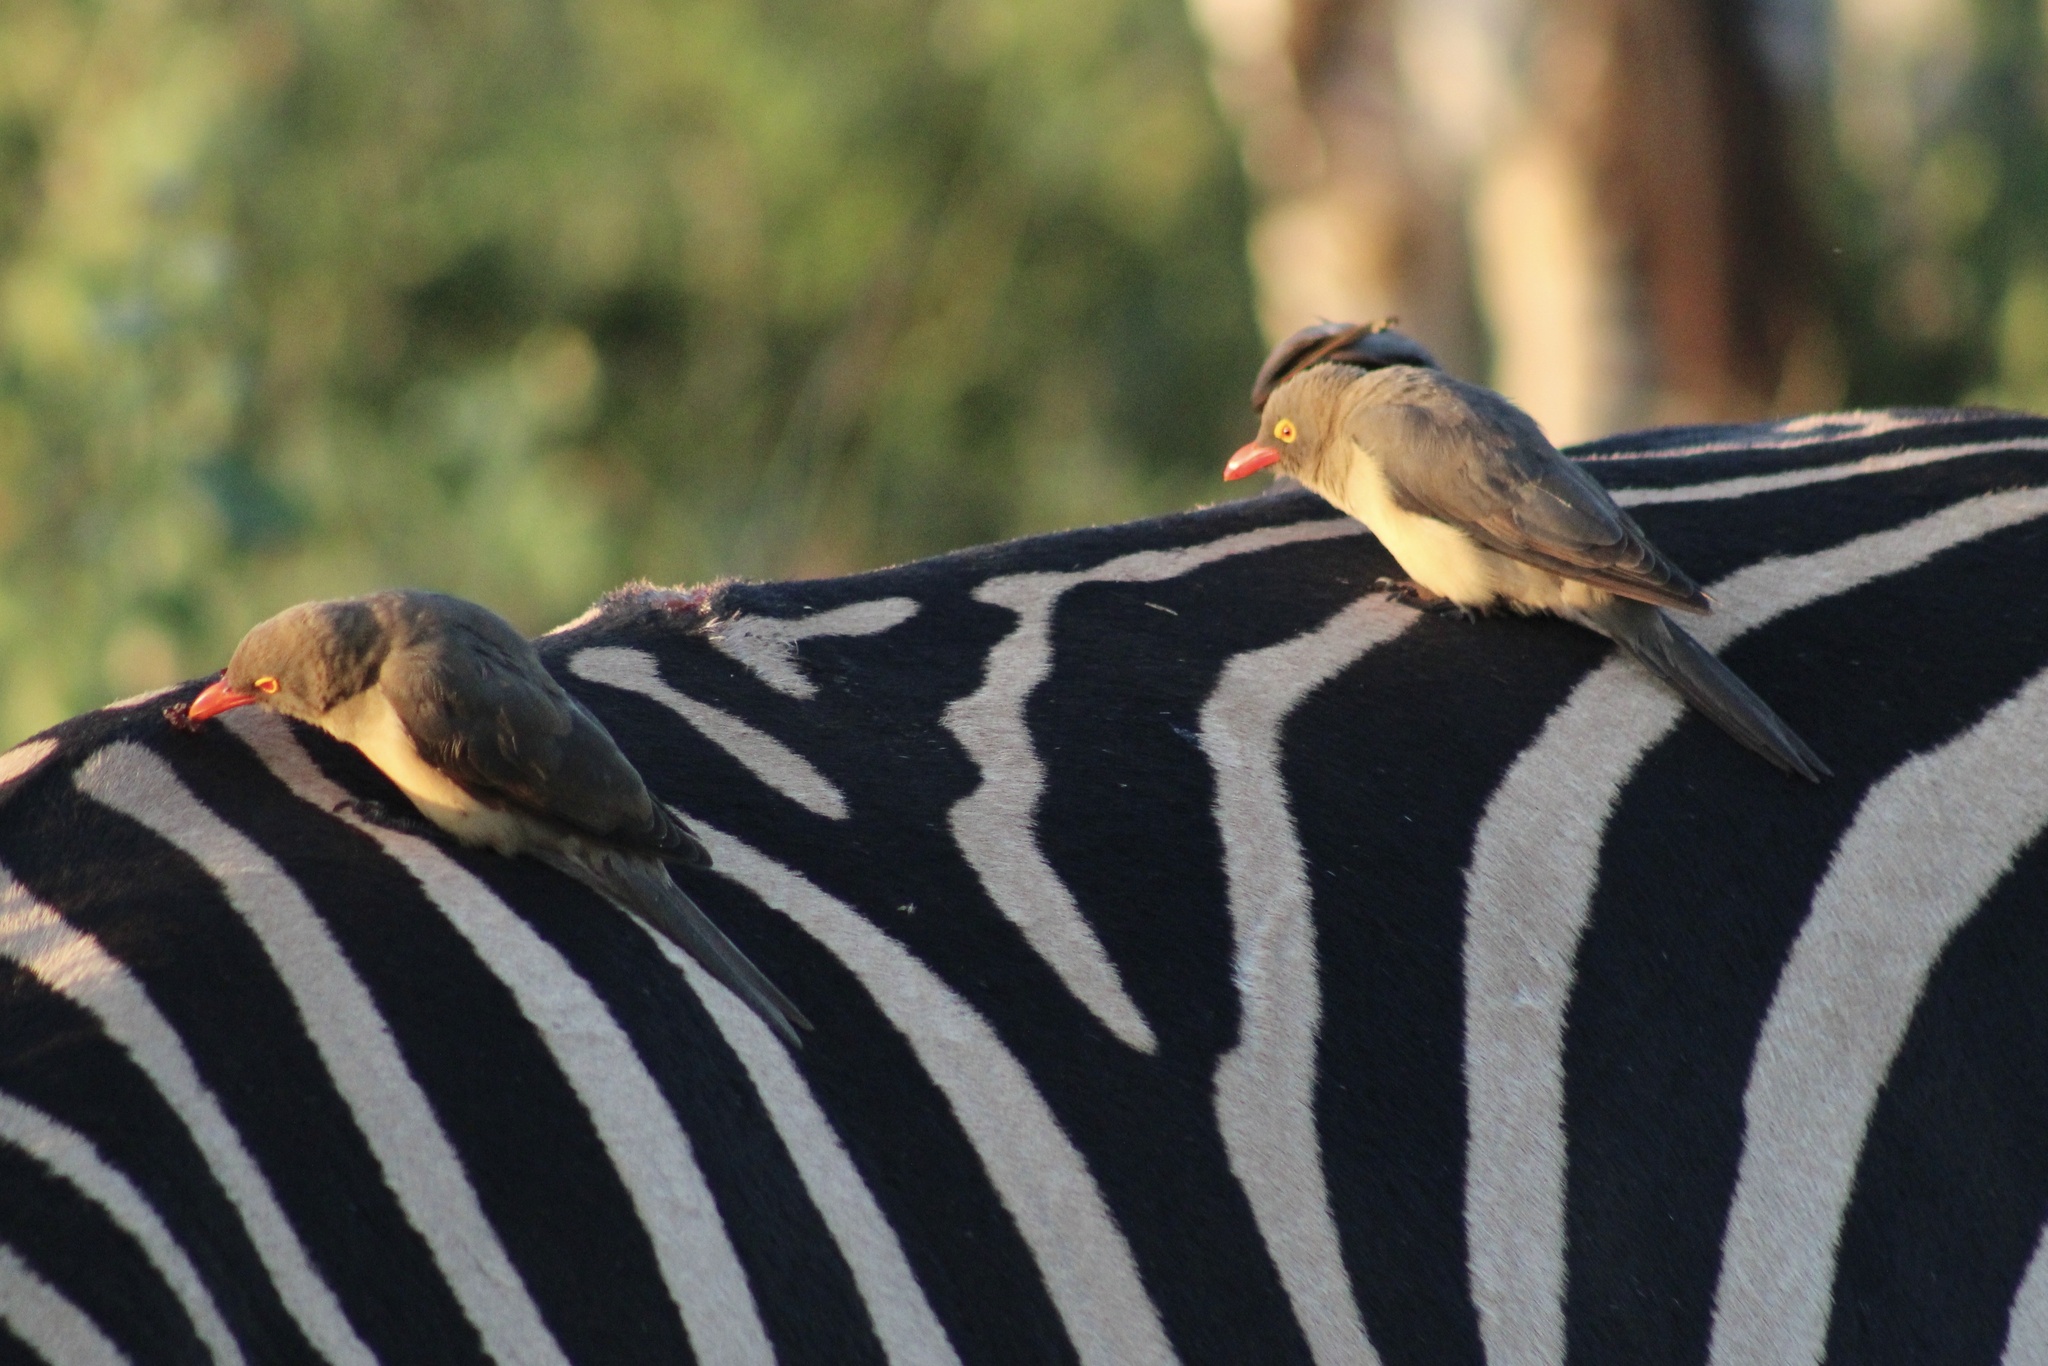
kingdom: Animalia
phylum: Chordata
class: Aves
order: Passeriformes
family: Buphagidae
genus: Buphagus
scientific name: Buphagus erythrorhynchus
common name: Red-billed oxpecker
